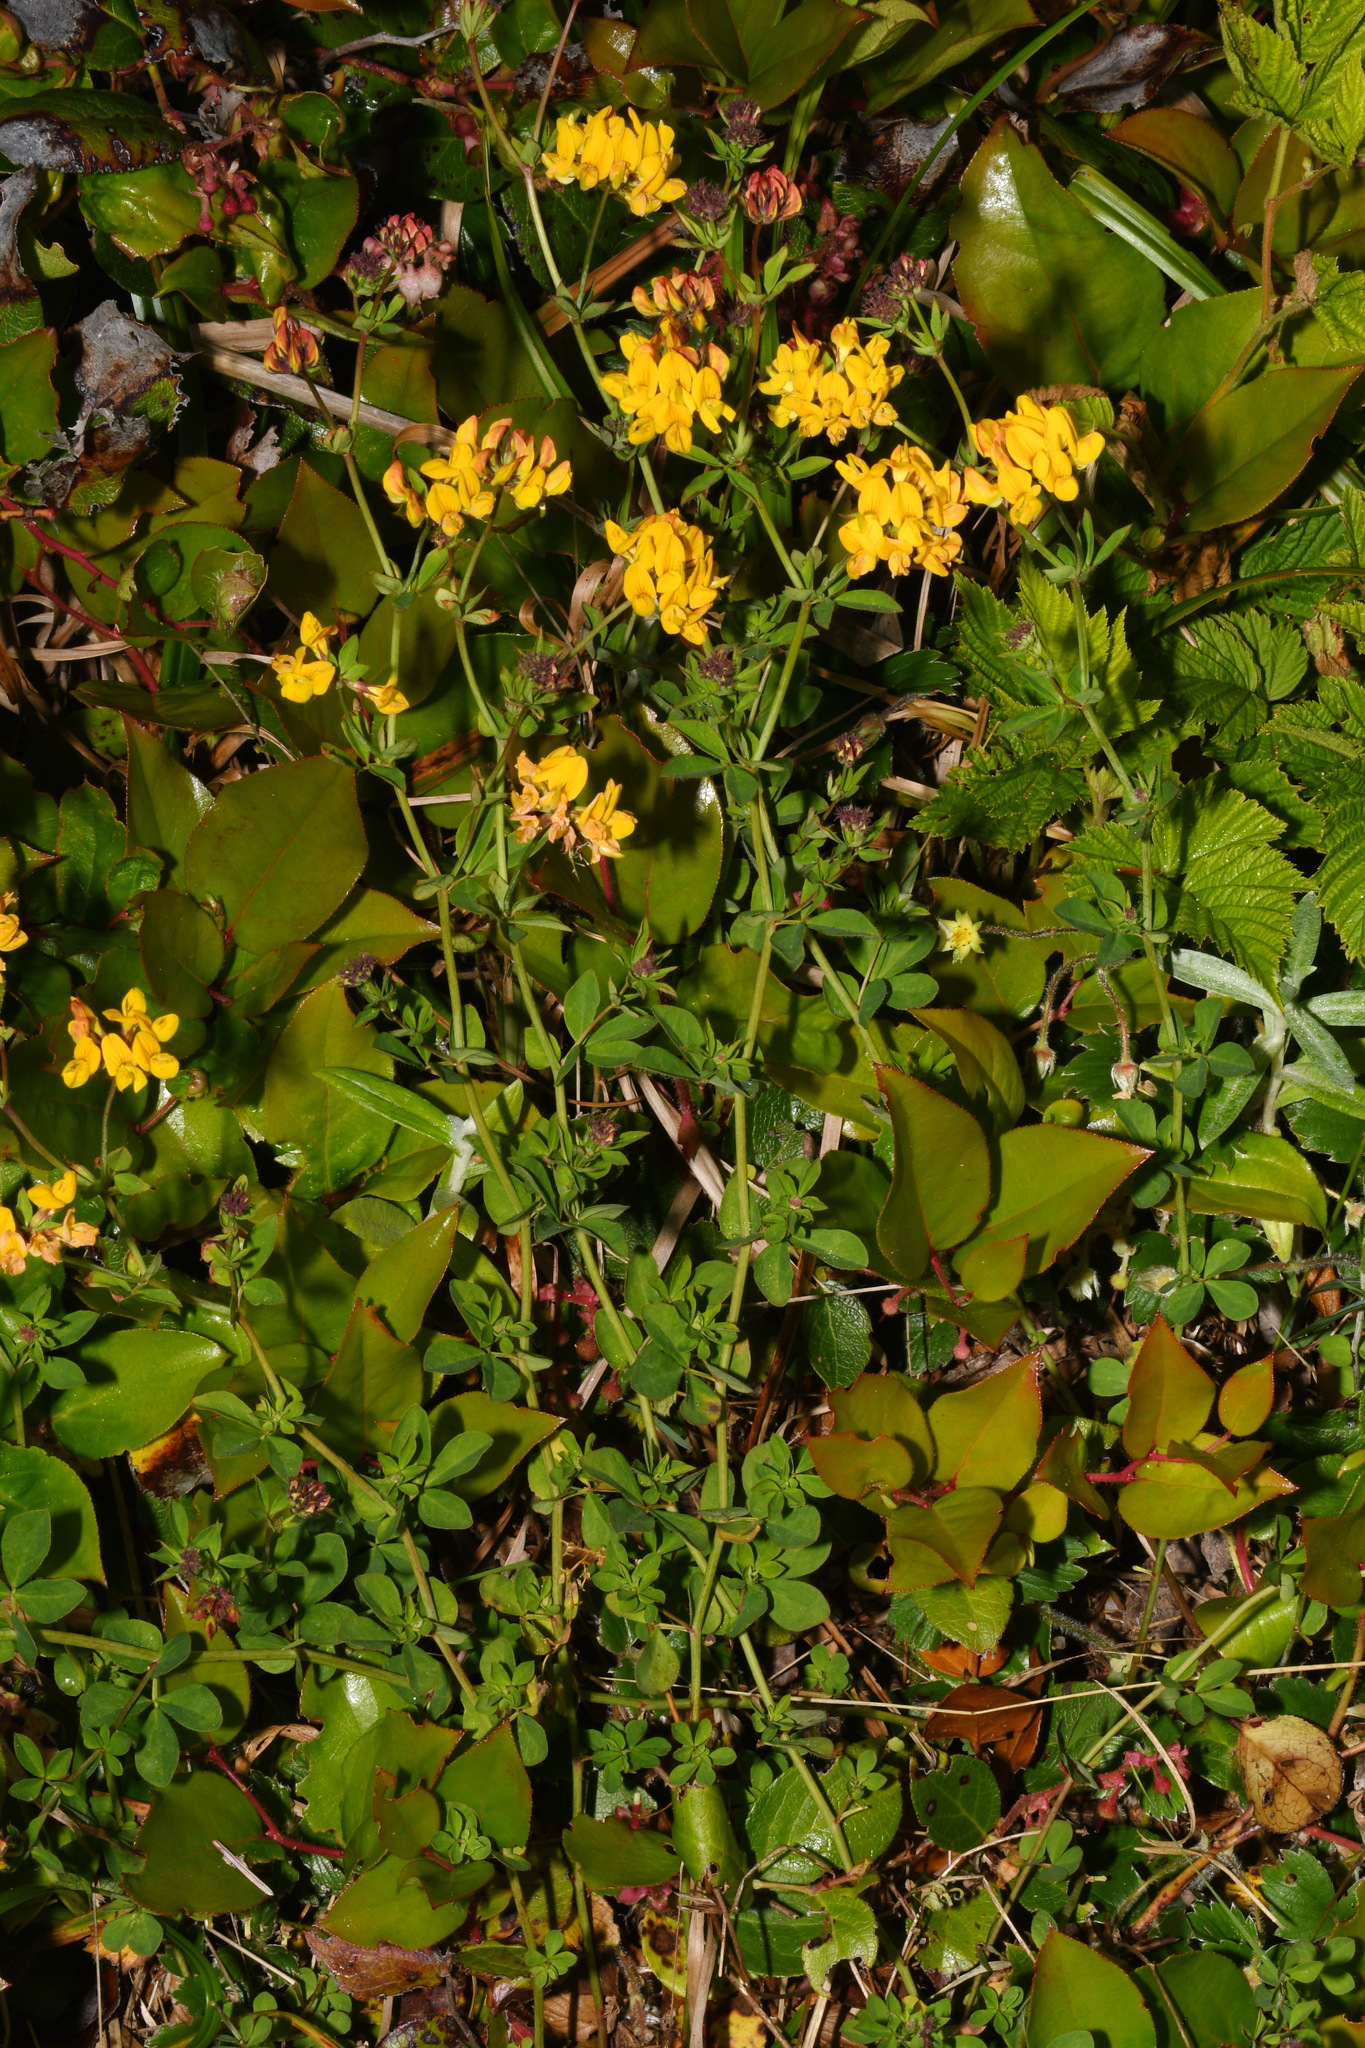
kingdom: Plantae
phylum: Tracheophyta
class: Magnoliopsida
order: Fabales
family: Fabaceae
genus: Lotus
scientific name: Lotus pedunculatus
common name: Greater birdsfoot-trefoil
